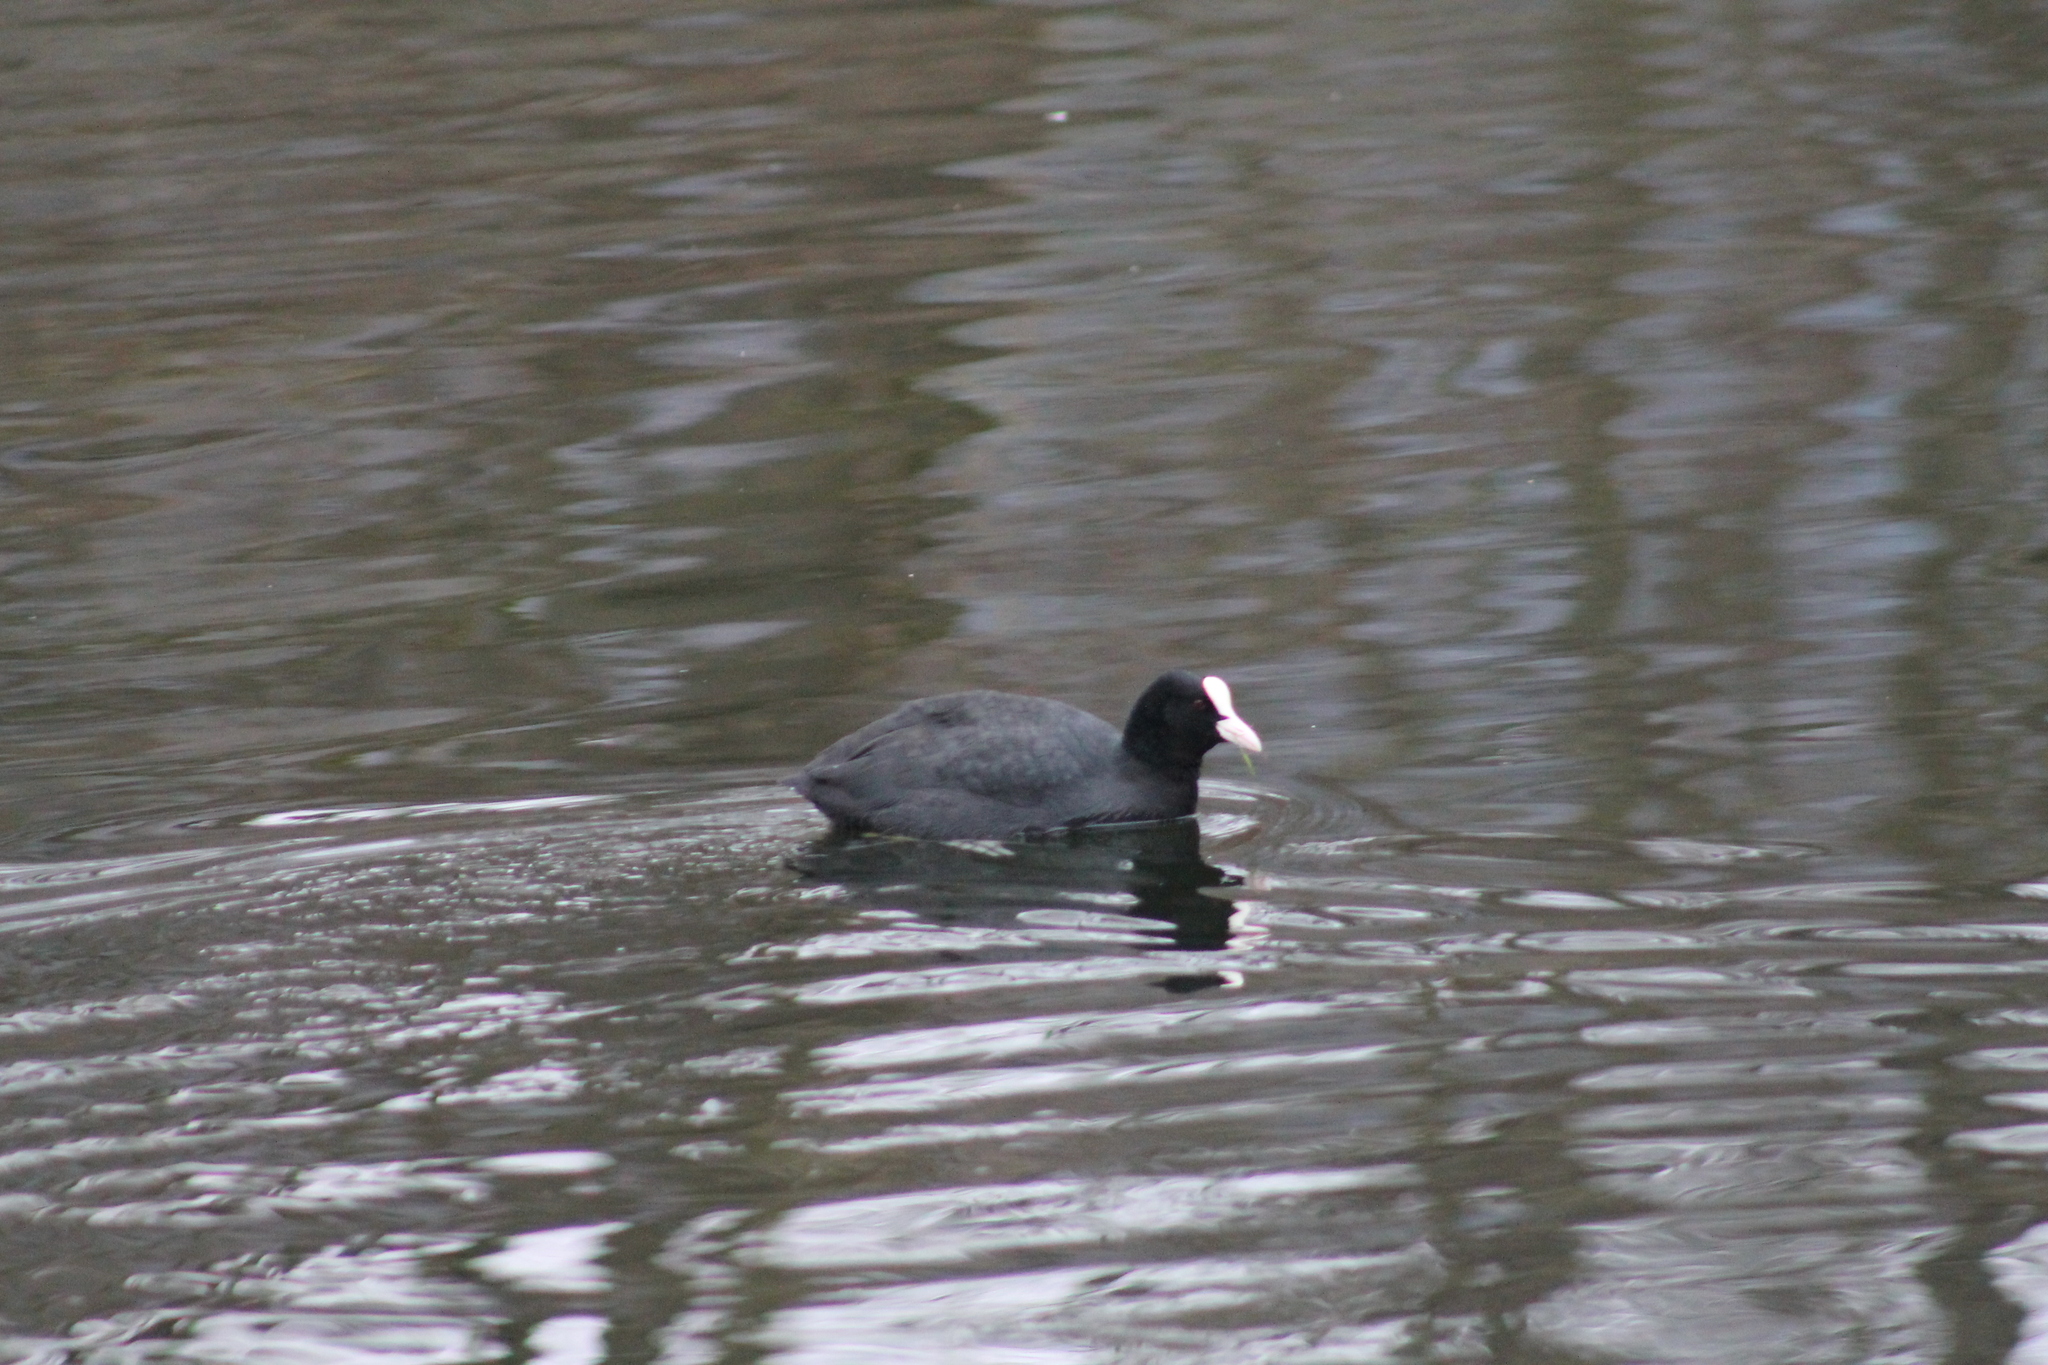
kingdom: Animalia
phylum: Chordata
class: Aves
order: Gruiformes
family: Rallidae
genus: Fulica
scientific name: Fulica atra
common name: Eurasian coot
